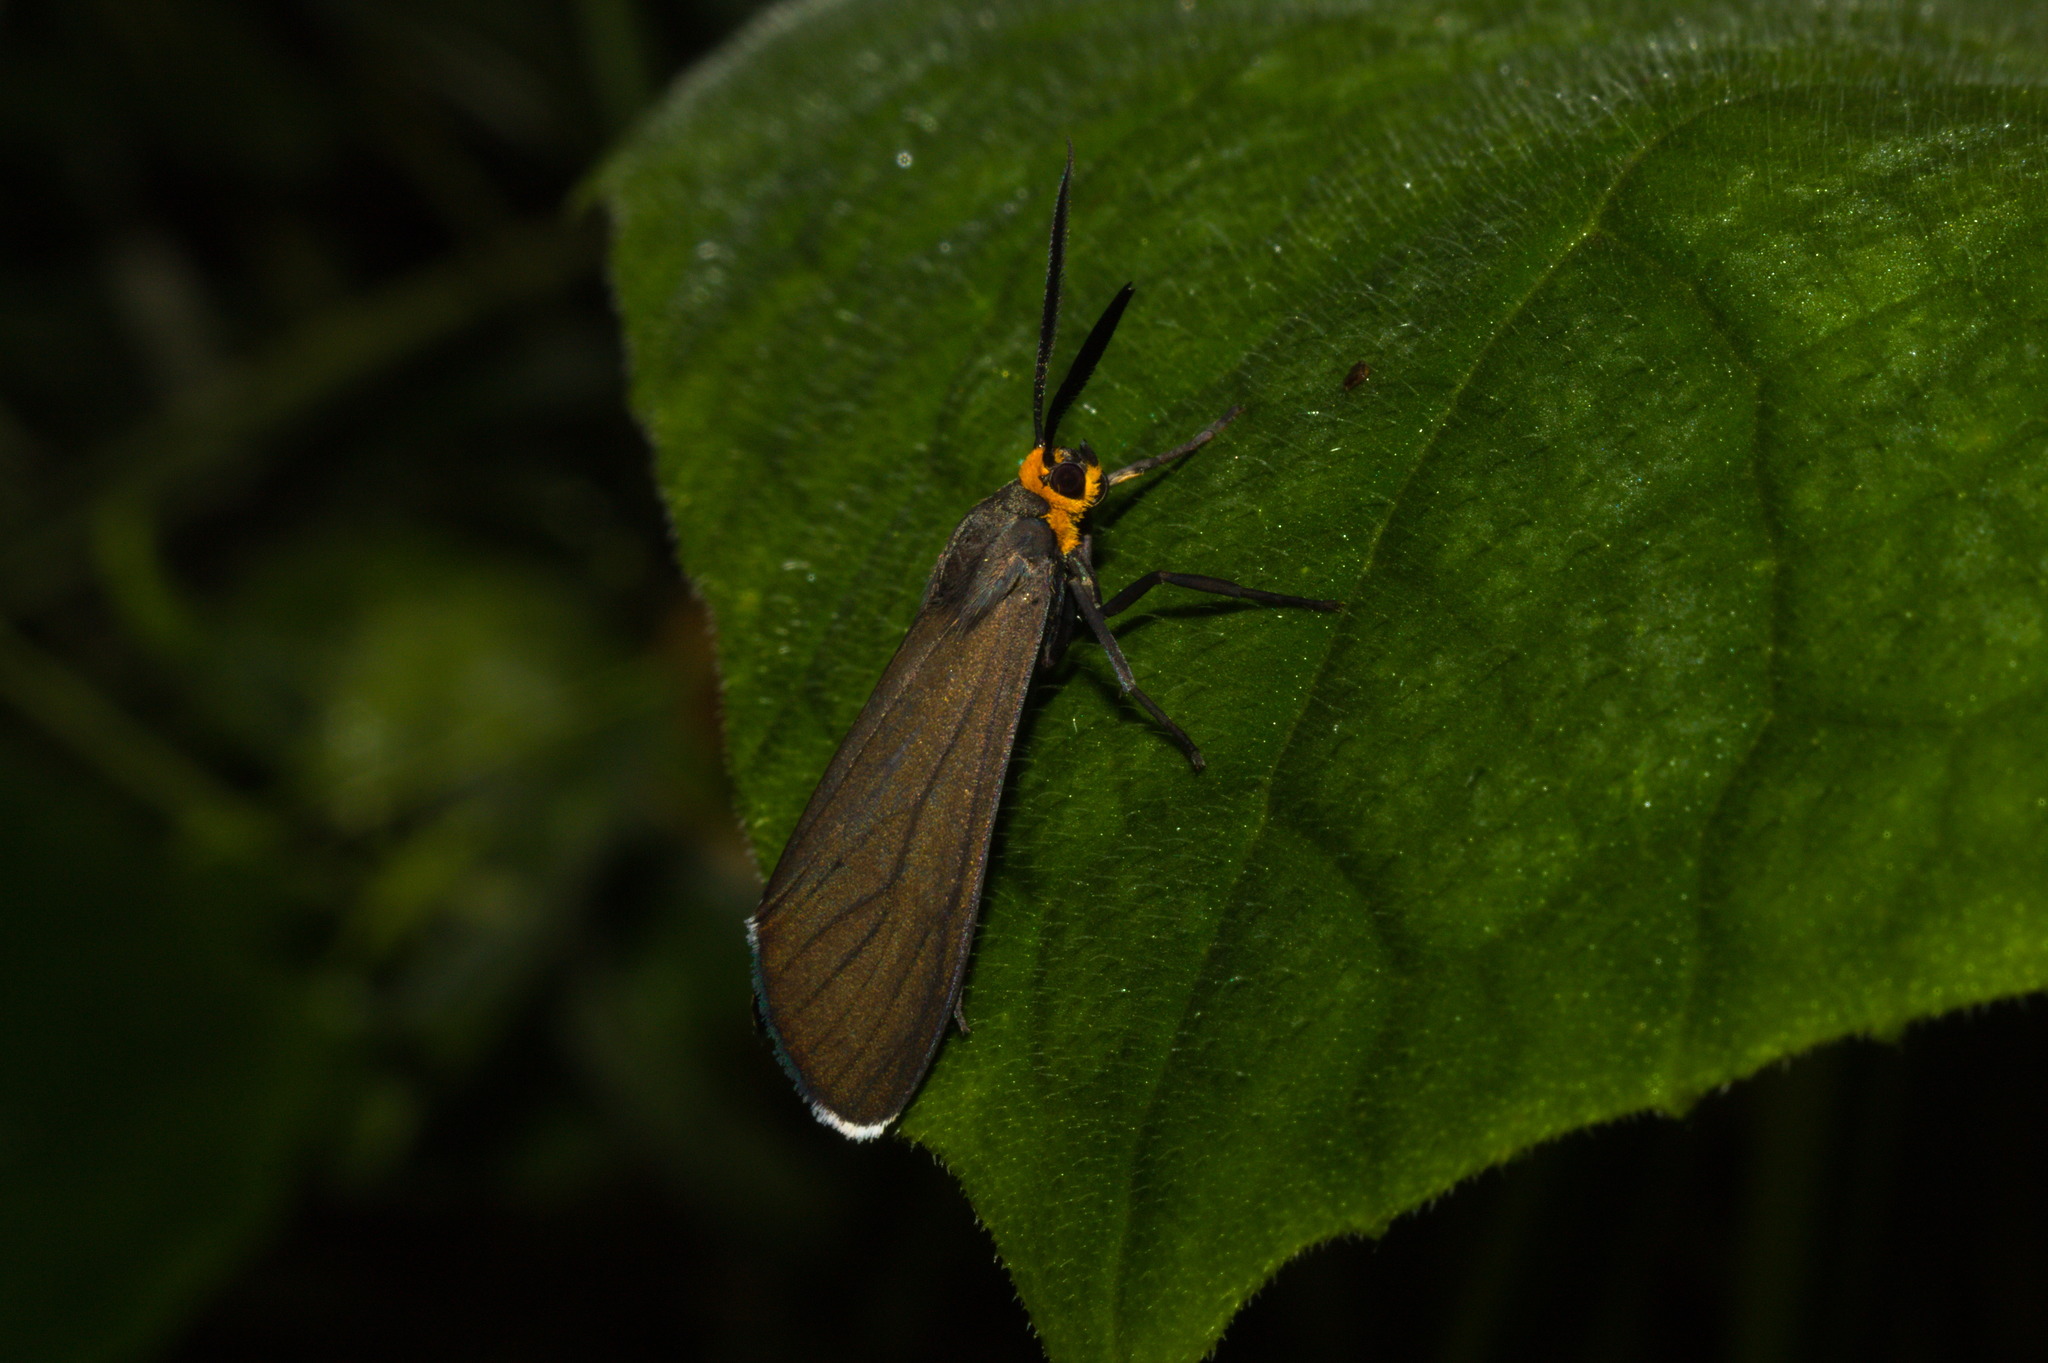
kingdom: Animalia
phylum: Arthropoda
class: Insecta
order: Lepidoptera
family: Erebidae
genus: Ctenucha
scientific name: Ctenucha rubriceps
